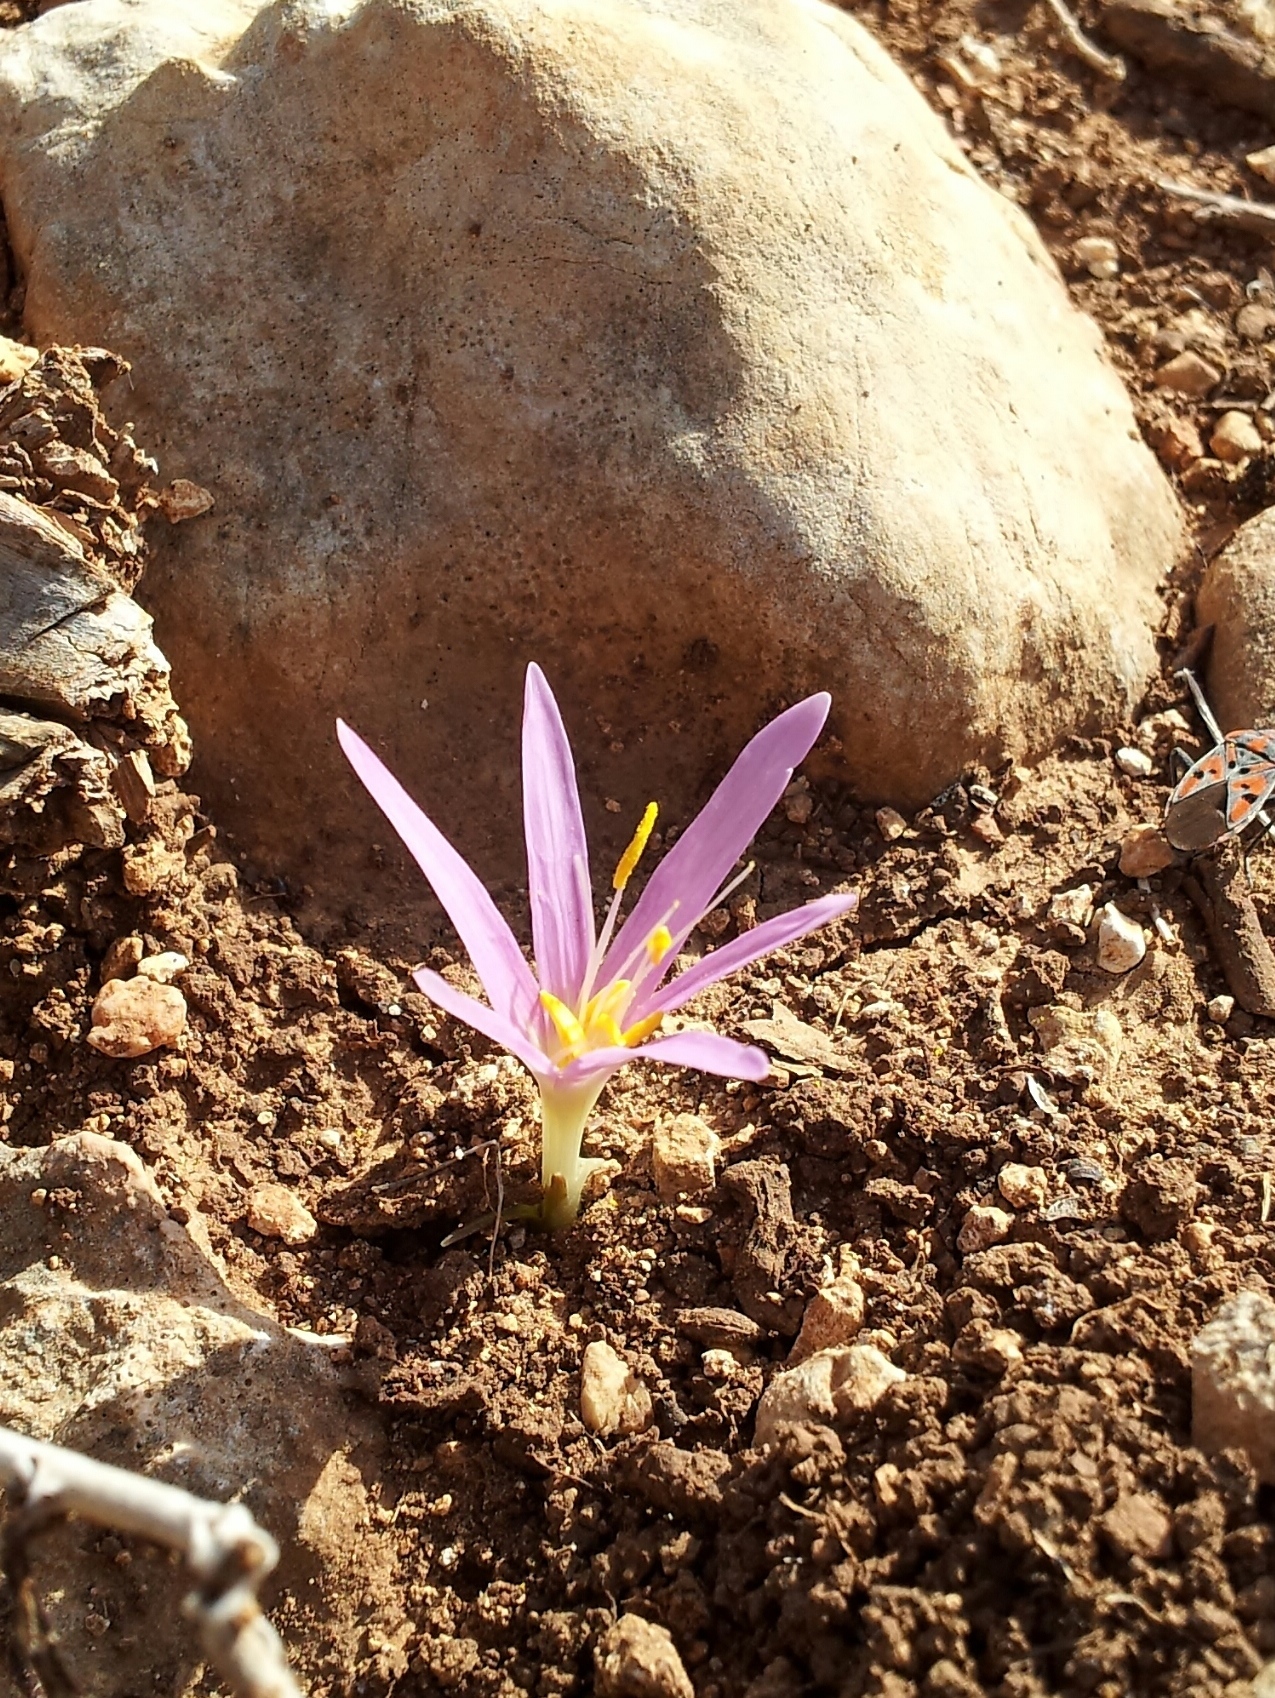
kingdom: Plantae
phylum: Tracheophyta
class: Liliopsida
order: Liliales
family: Colchicaceae
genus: Colchicum
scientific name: Colchicum stevenii
